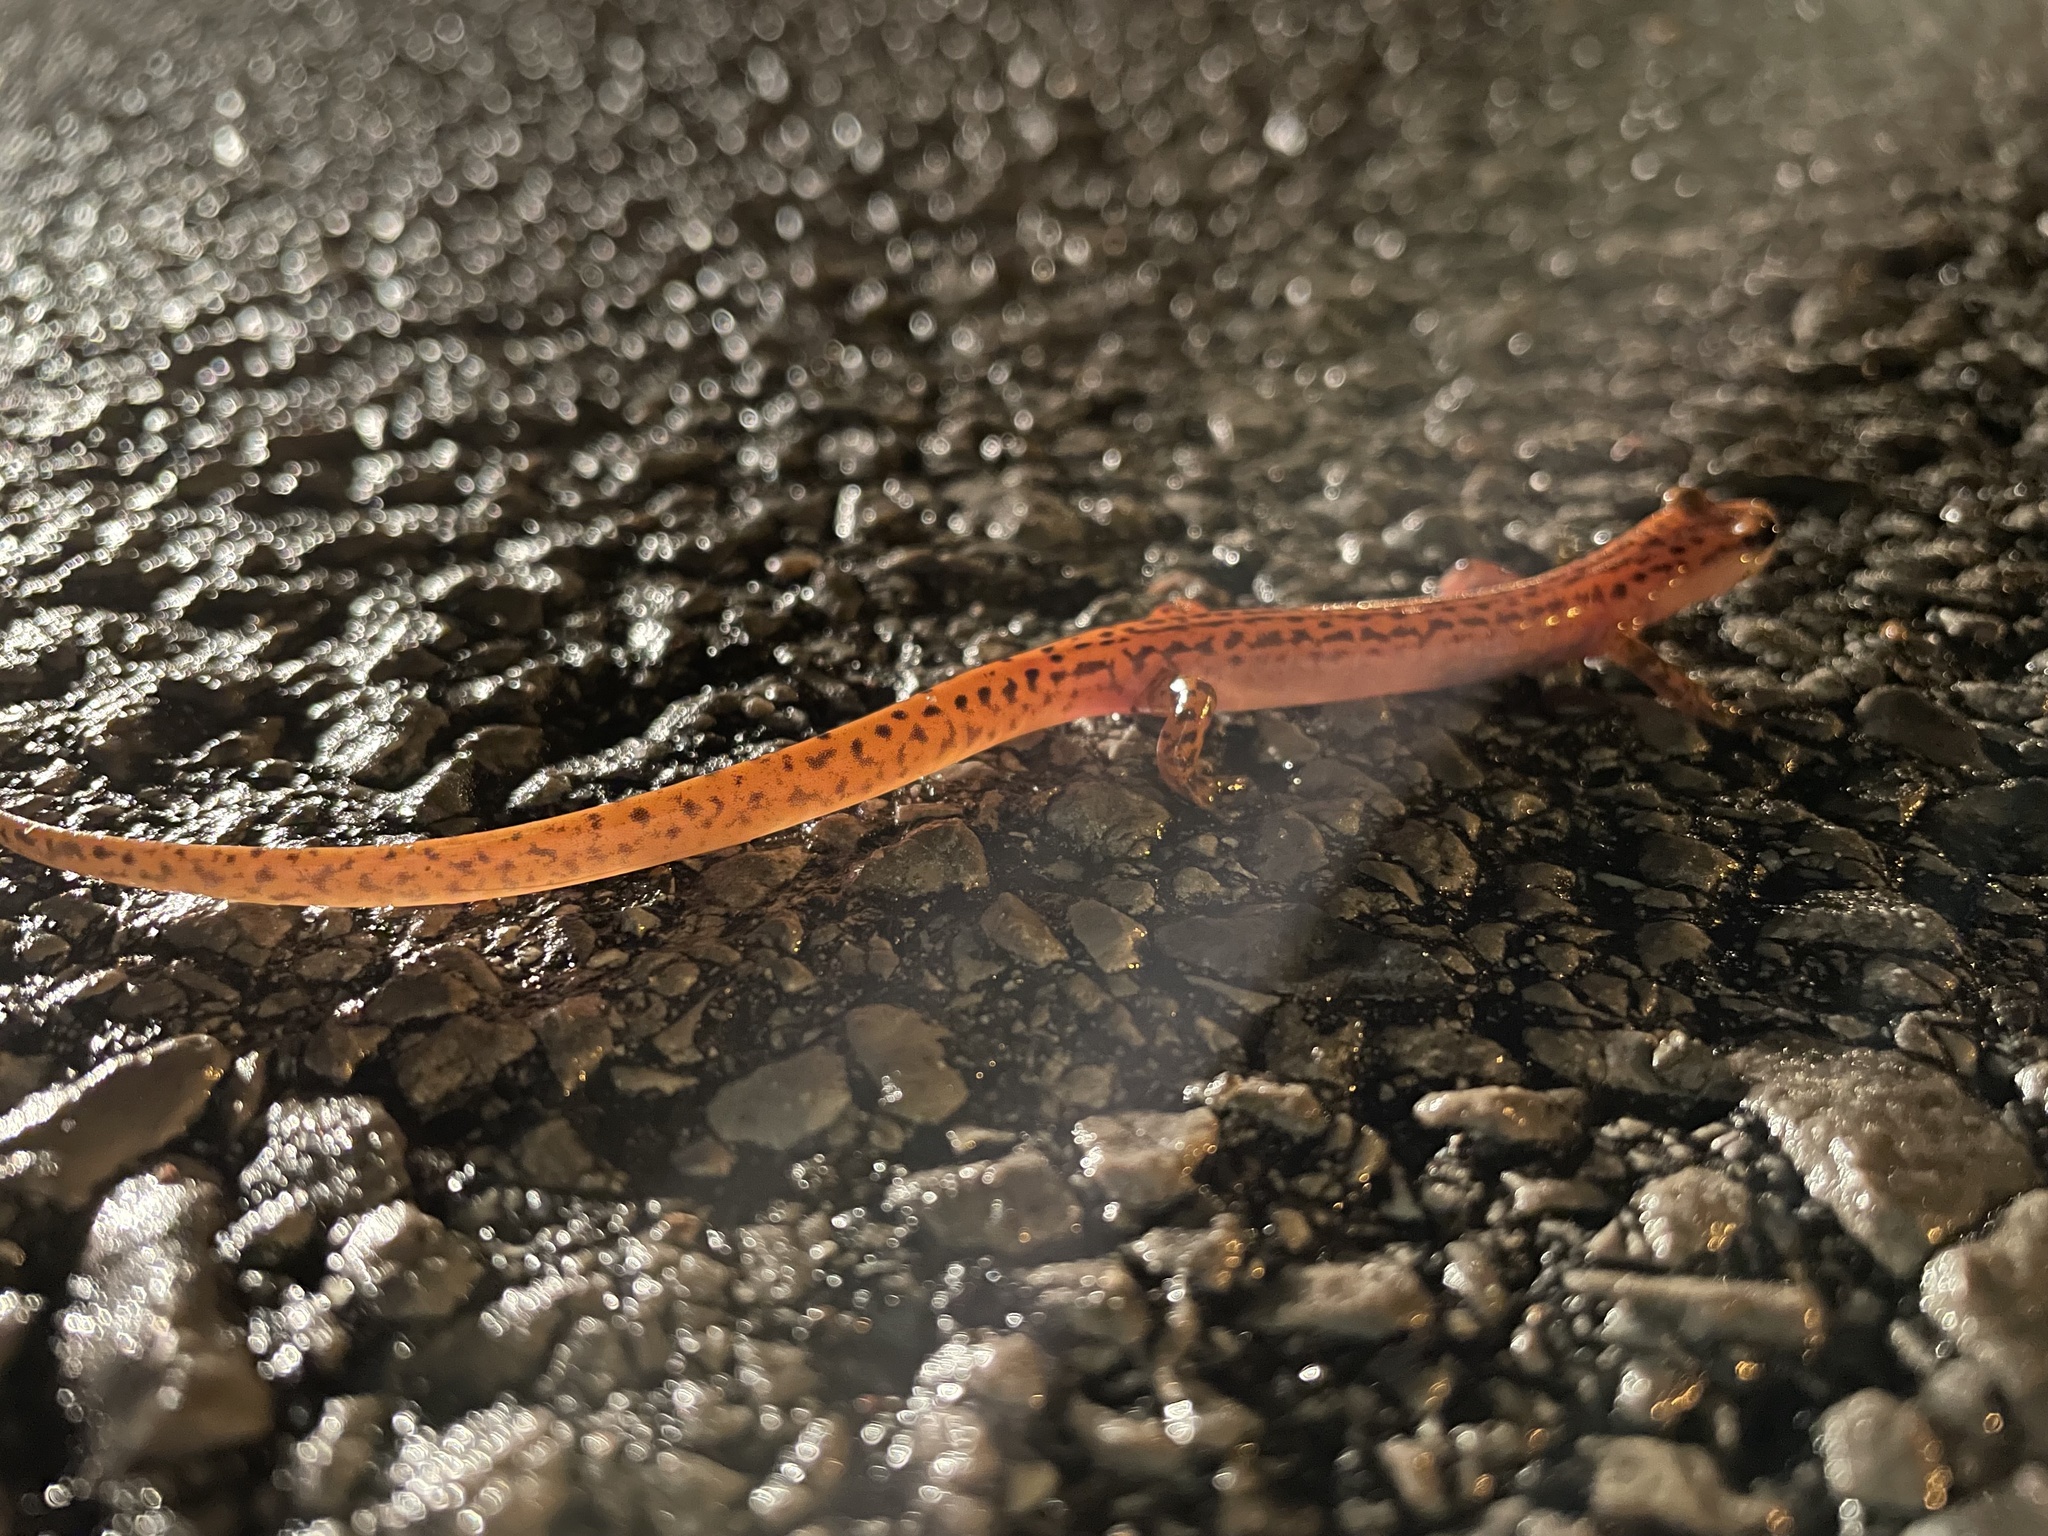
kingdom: Animalia
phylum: Chordata
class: Amphibia
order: Caudata
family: Plethodontidae
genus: Eurycea
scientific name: Eurycea lucifuga
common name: Cave salamander
